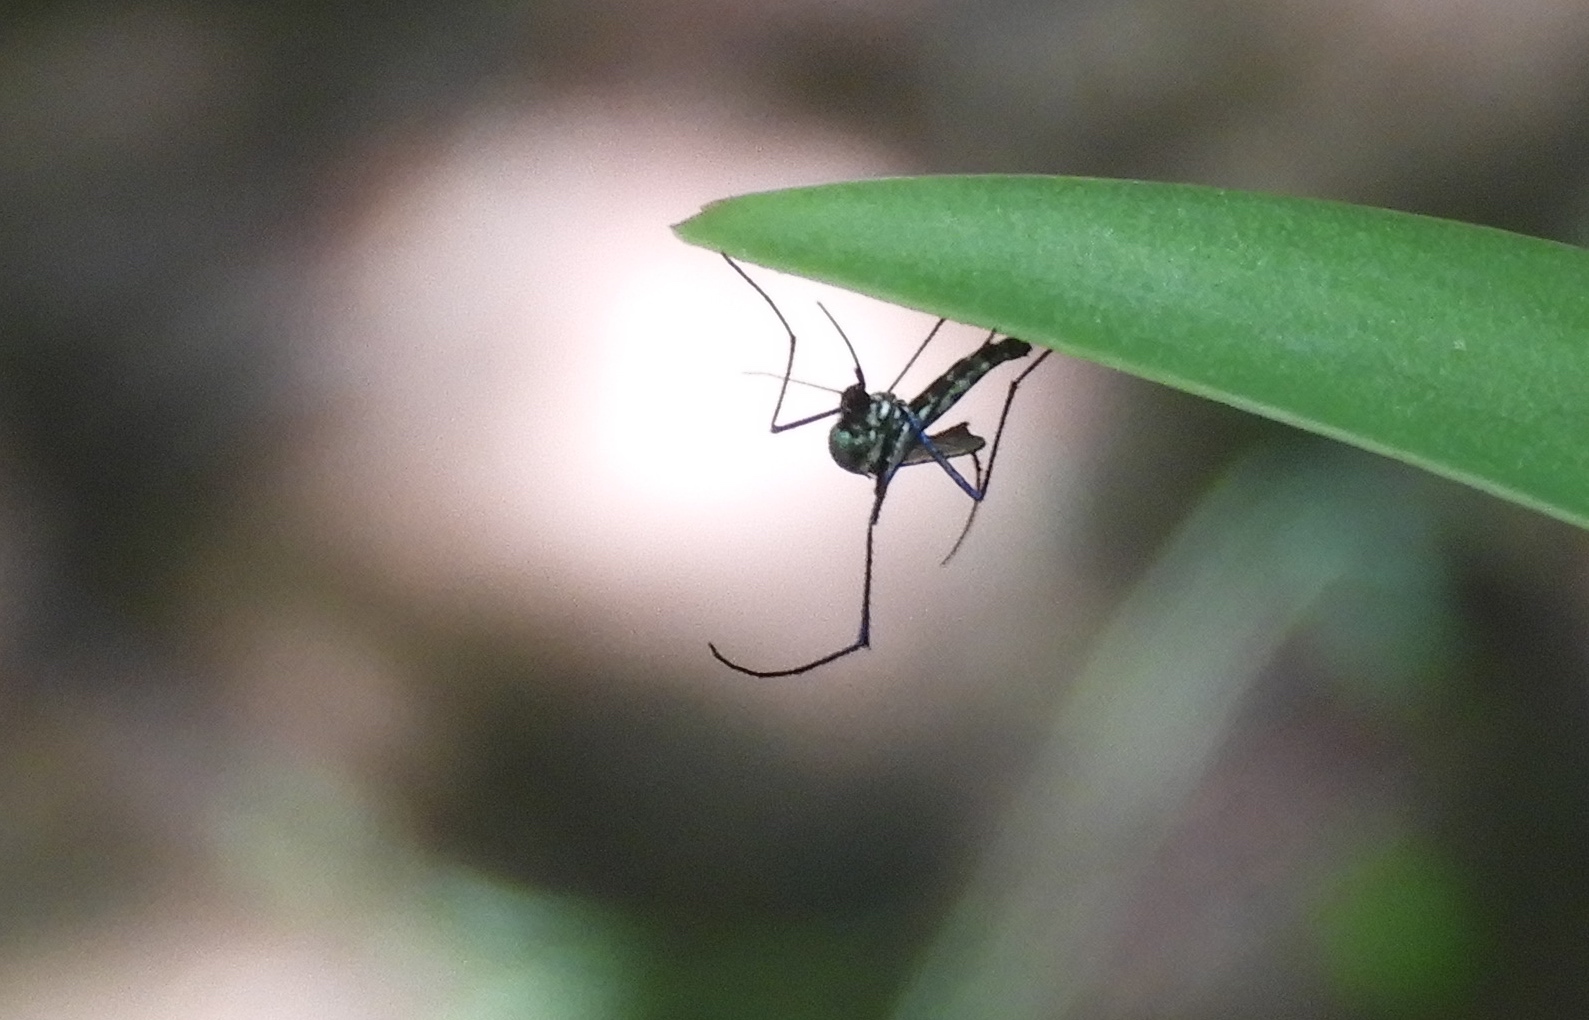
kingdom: Animalia
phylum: Arthropoda
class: Insecta
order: Diptera
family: Culicidae
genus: Haemagogus
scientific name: Haemagogus
